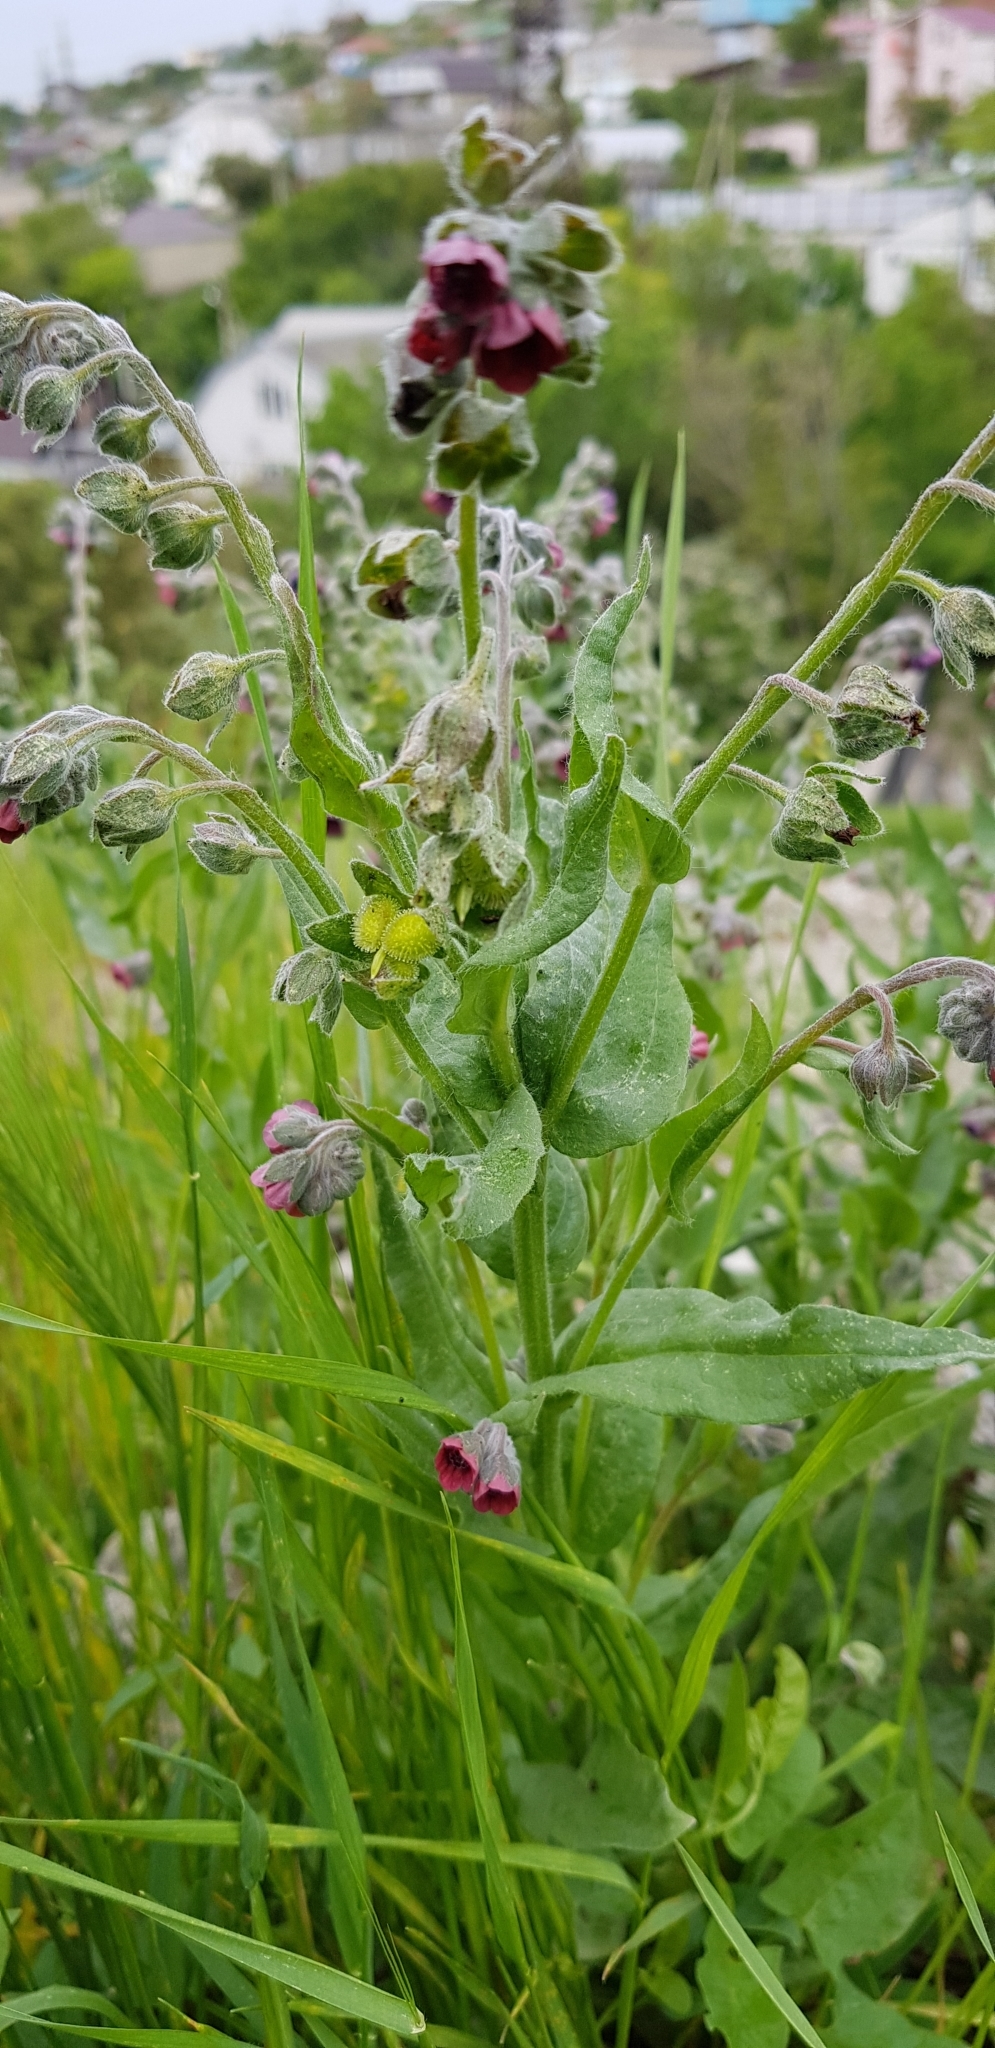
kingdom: Plantae
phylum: Tracheophyta
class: Magnoliopsida
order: Boraginales
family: Boraginaceae
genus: Cynoglossum
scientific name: Cynoglossum officinale
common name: Hound's-tongue
